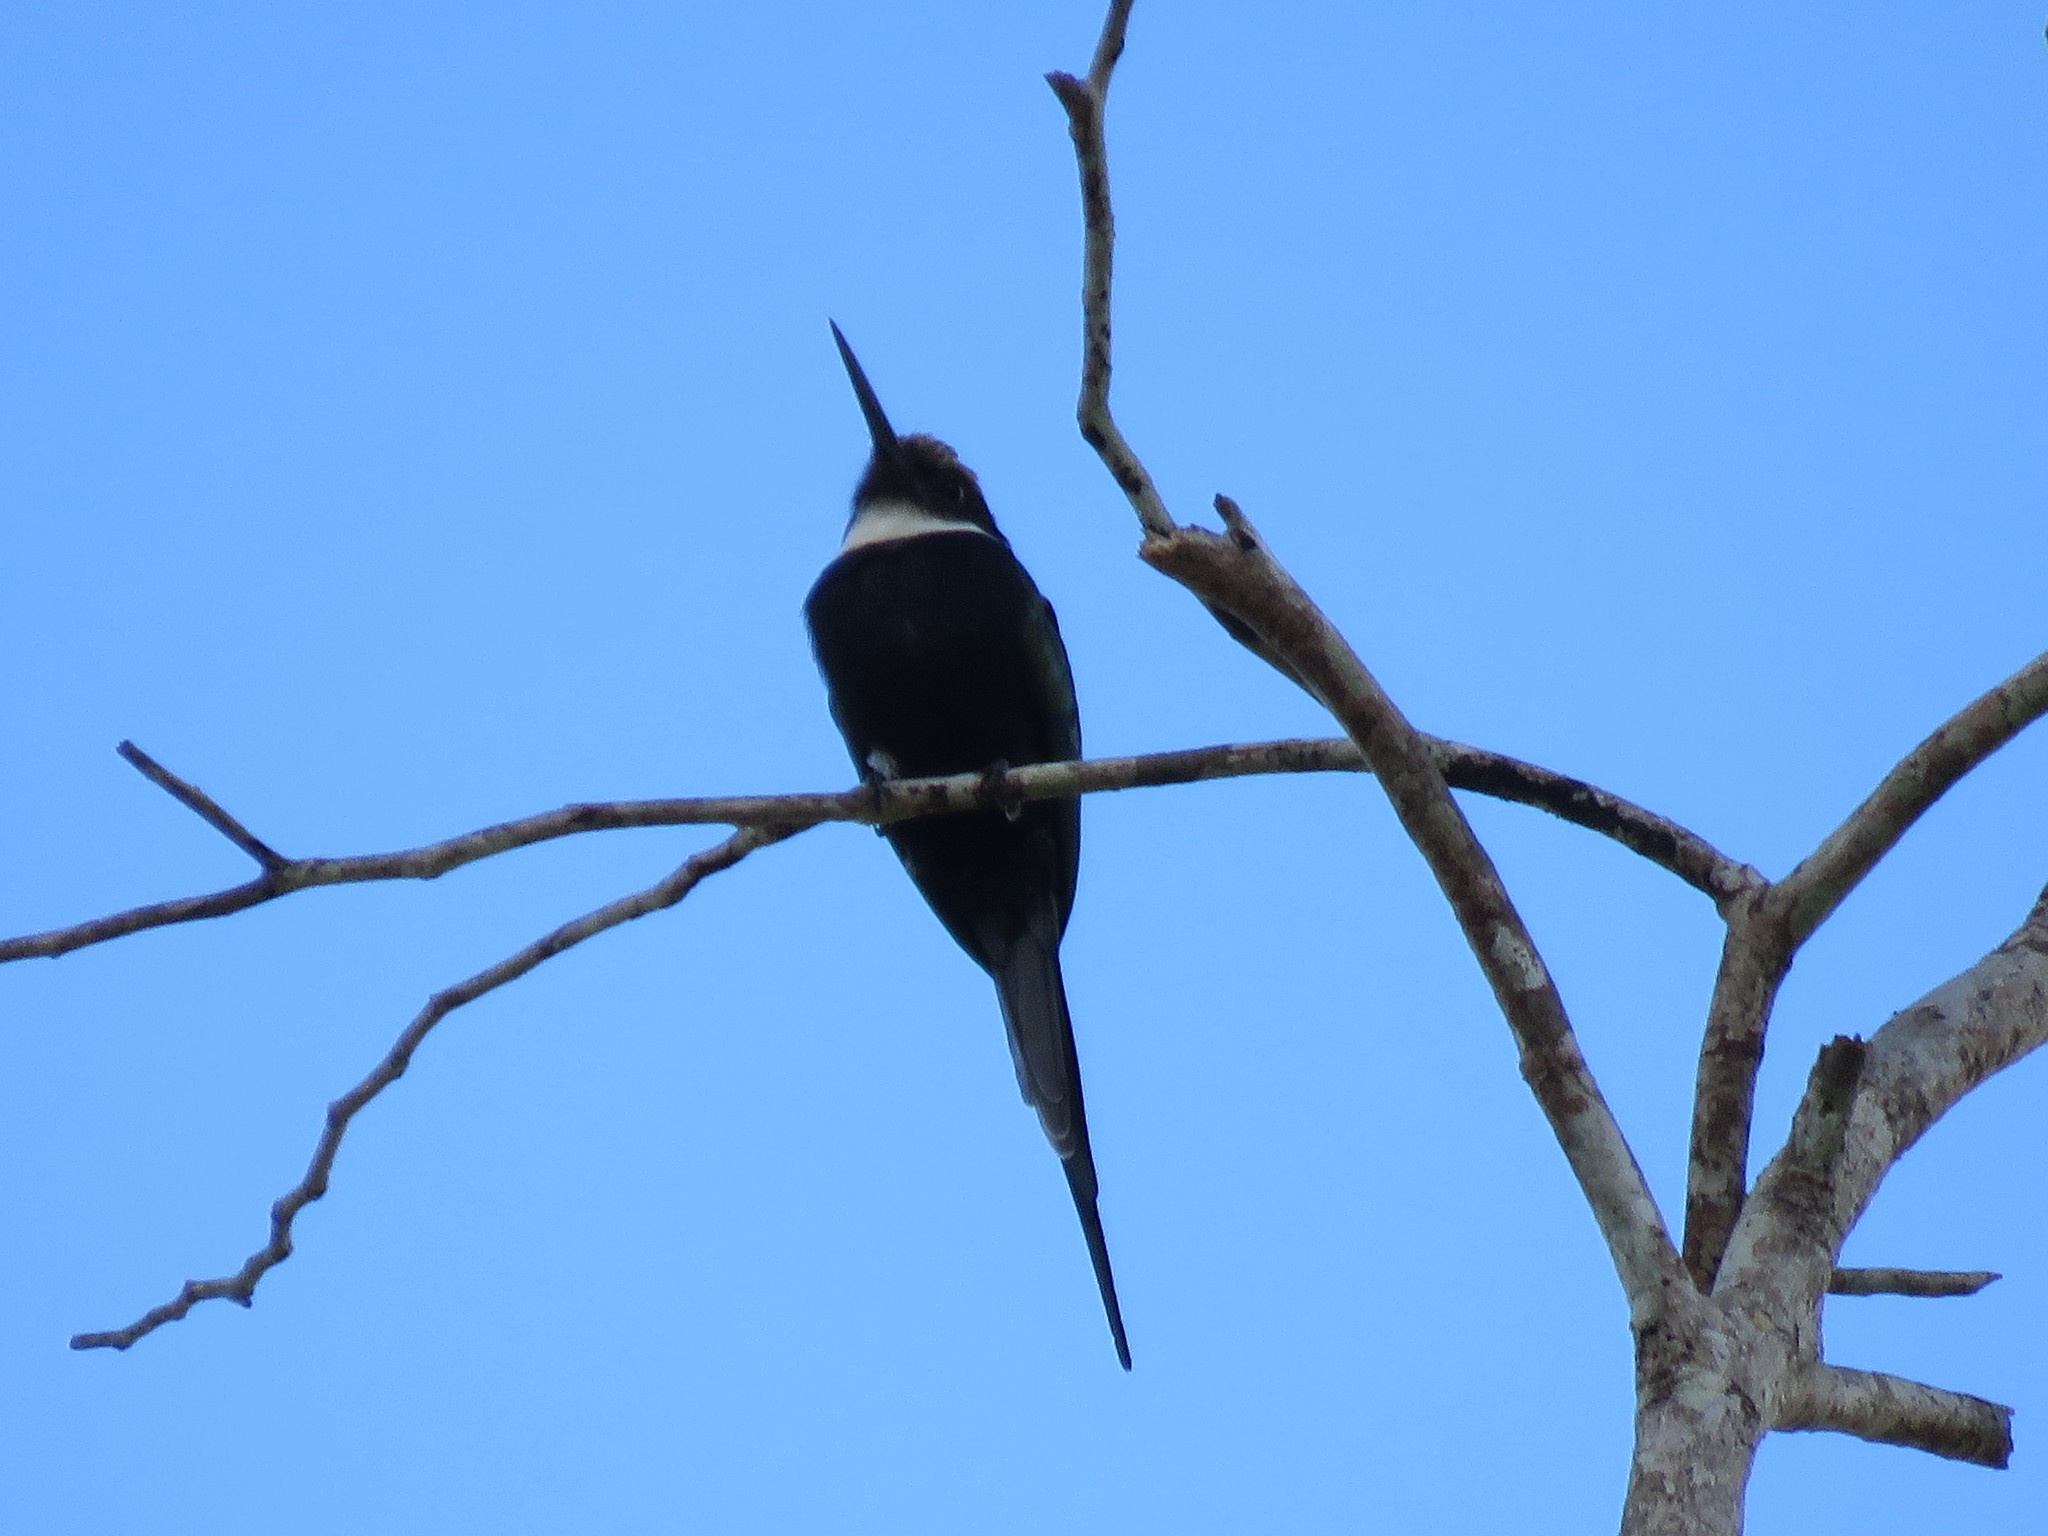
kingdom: Animalia
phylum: Chordata
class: Aves
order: Piciformes
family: Galbulidae
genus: Galbula
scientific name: Galbula dea
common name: Paradise jacamar
